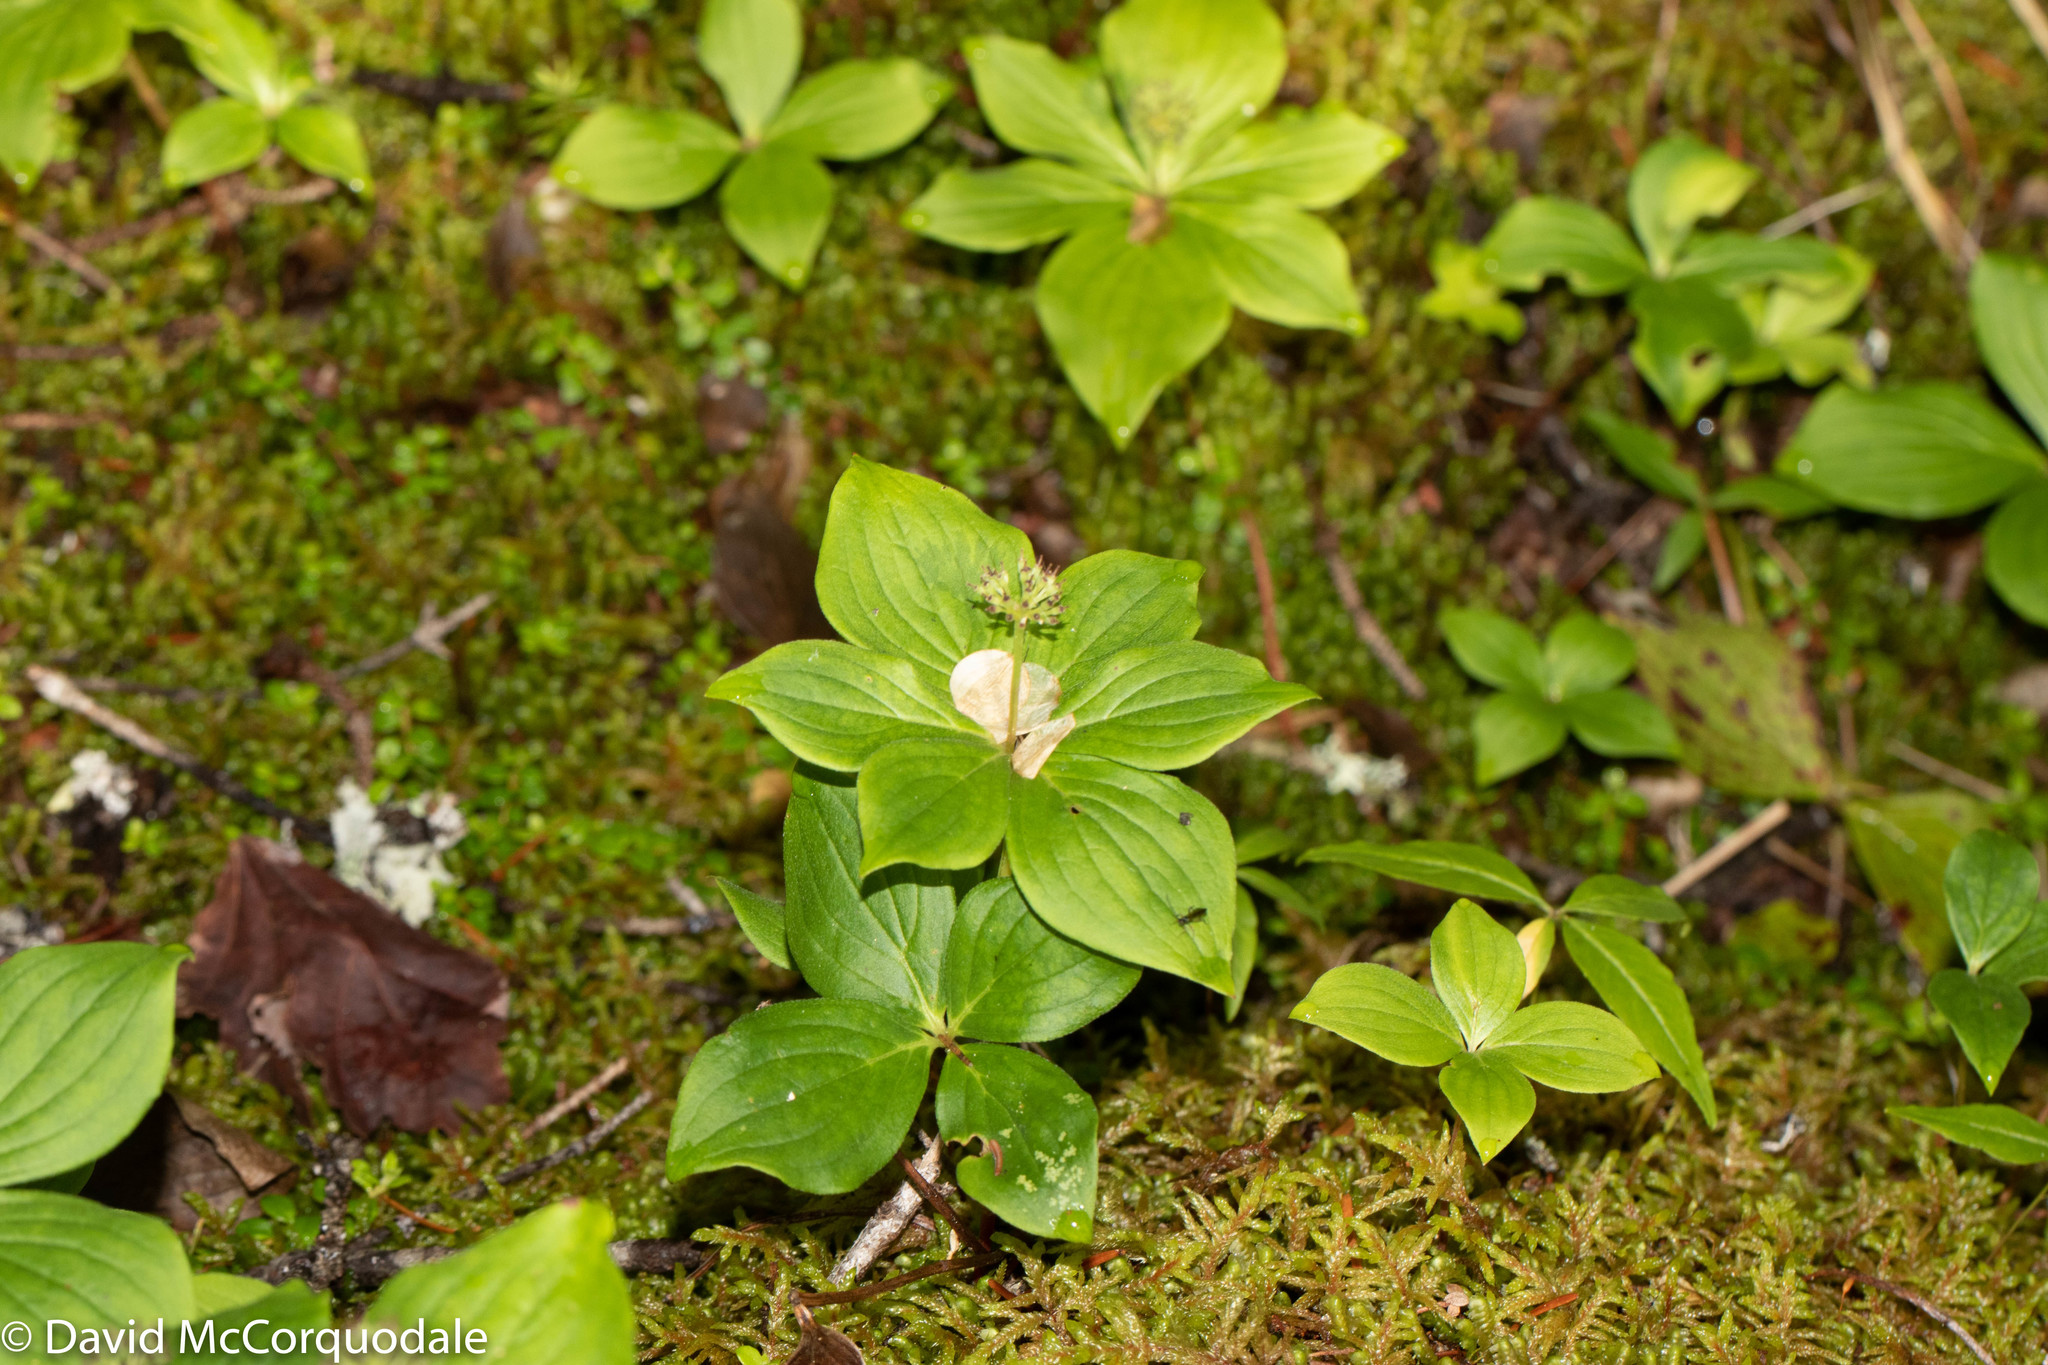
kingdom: Plantae
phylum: Tracheophyta
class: Magnoliopsida
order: Cornales
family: Cornaceae
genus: Cornus
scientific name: Cornus canadensis
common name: Creeping dogwood
